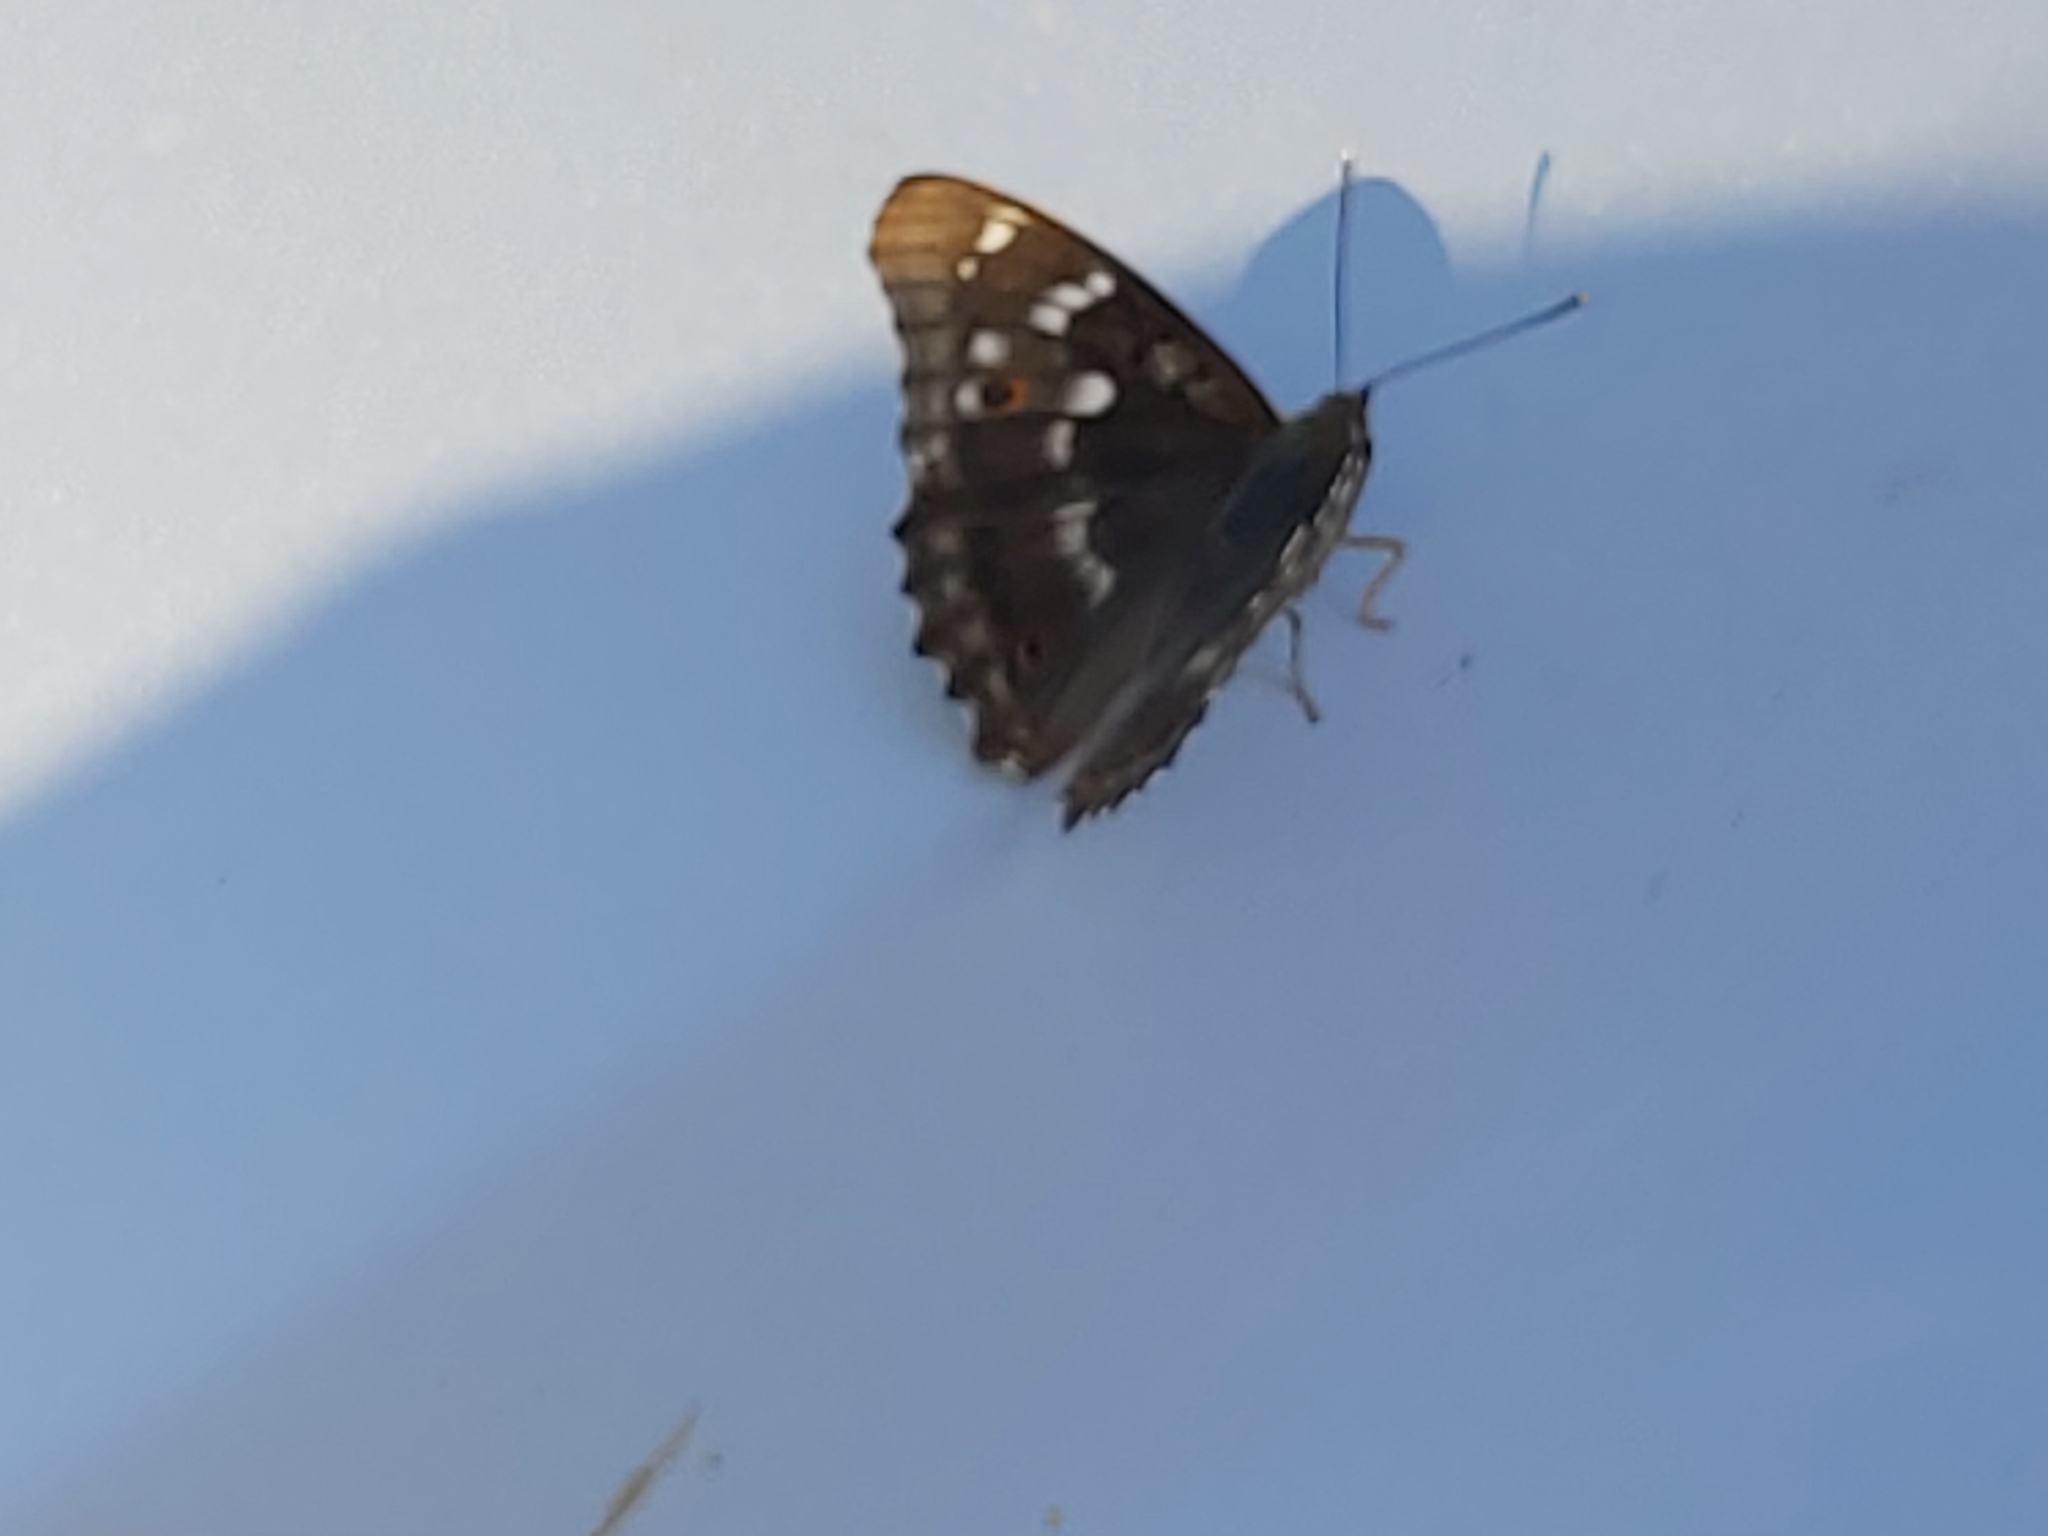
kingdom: Animalia
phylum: Arthropoda
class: Insecta
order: Lepidoptera
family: Nymphalidae
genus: Apatura
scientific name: Apatura ilia
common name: Lesser purple emperor
